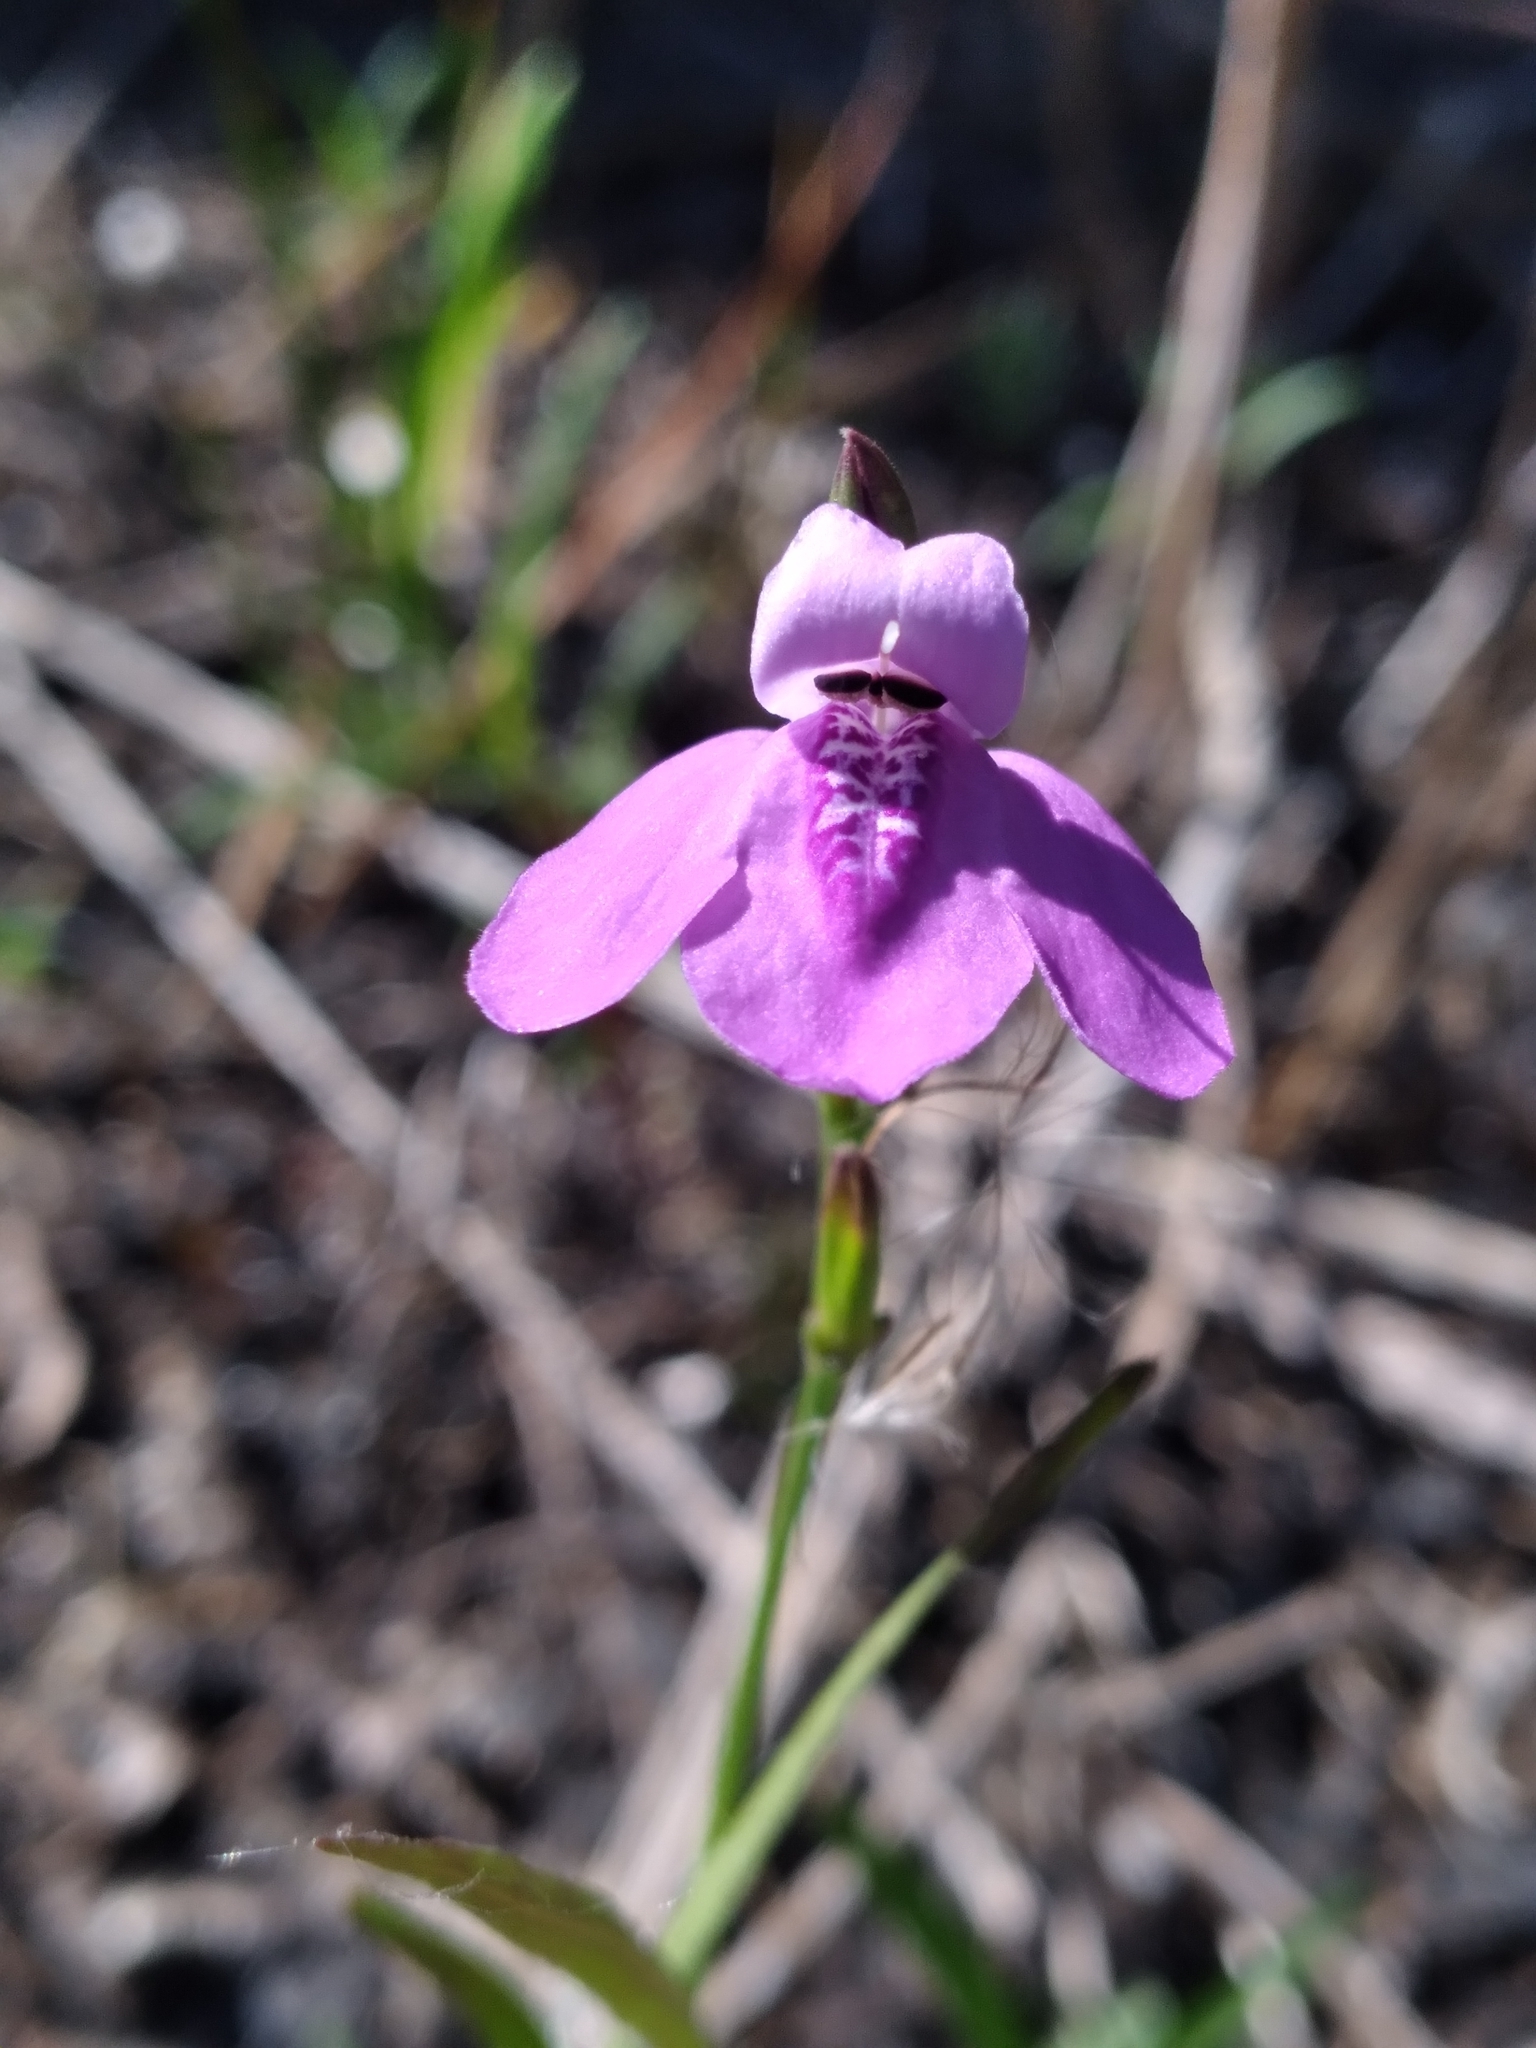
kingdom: Plantae
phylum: Tracheophyta
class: Magnoliopsida
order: Lamiales
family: Acanthaceae
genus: Dianthera
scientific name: Dianthera angusta
